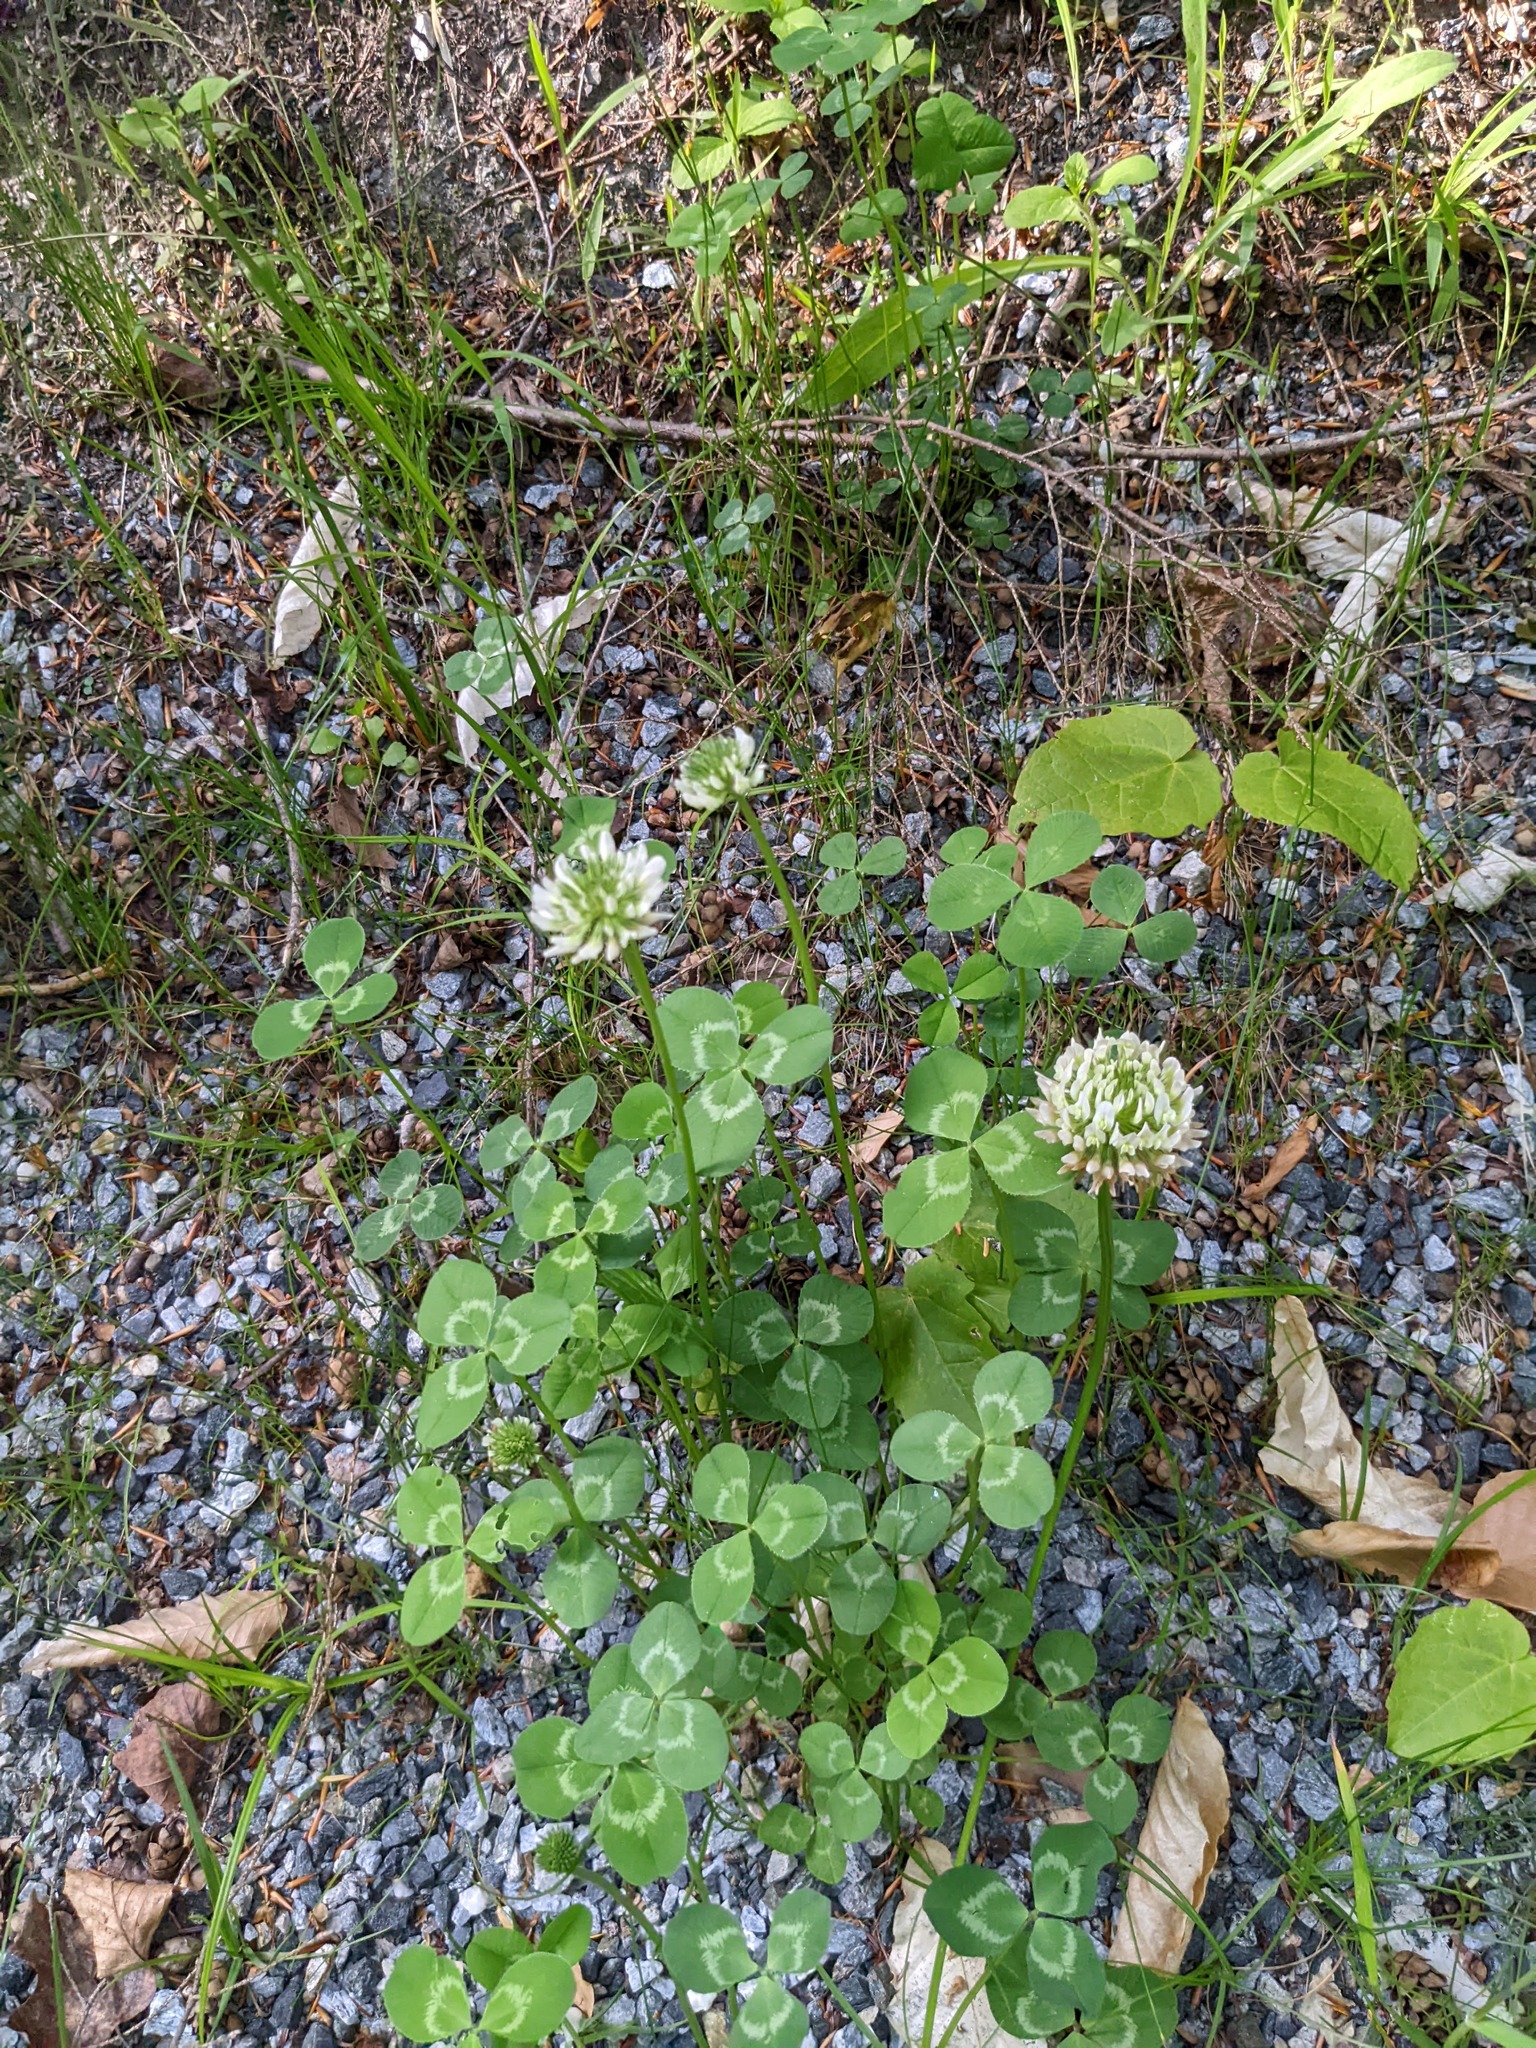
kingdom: Plantae
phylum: Tracheophyta
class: Magnoliopsida
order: Fabales
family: Fabaceae
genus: Trifolium
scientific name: Trifolium repens
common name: White clover
